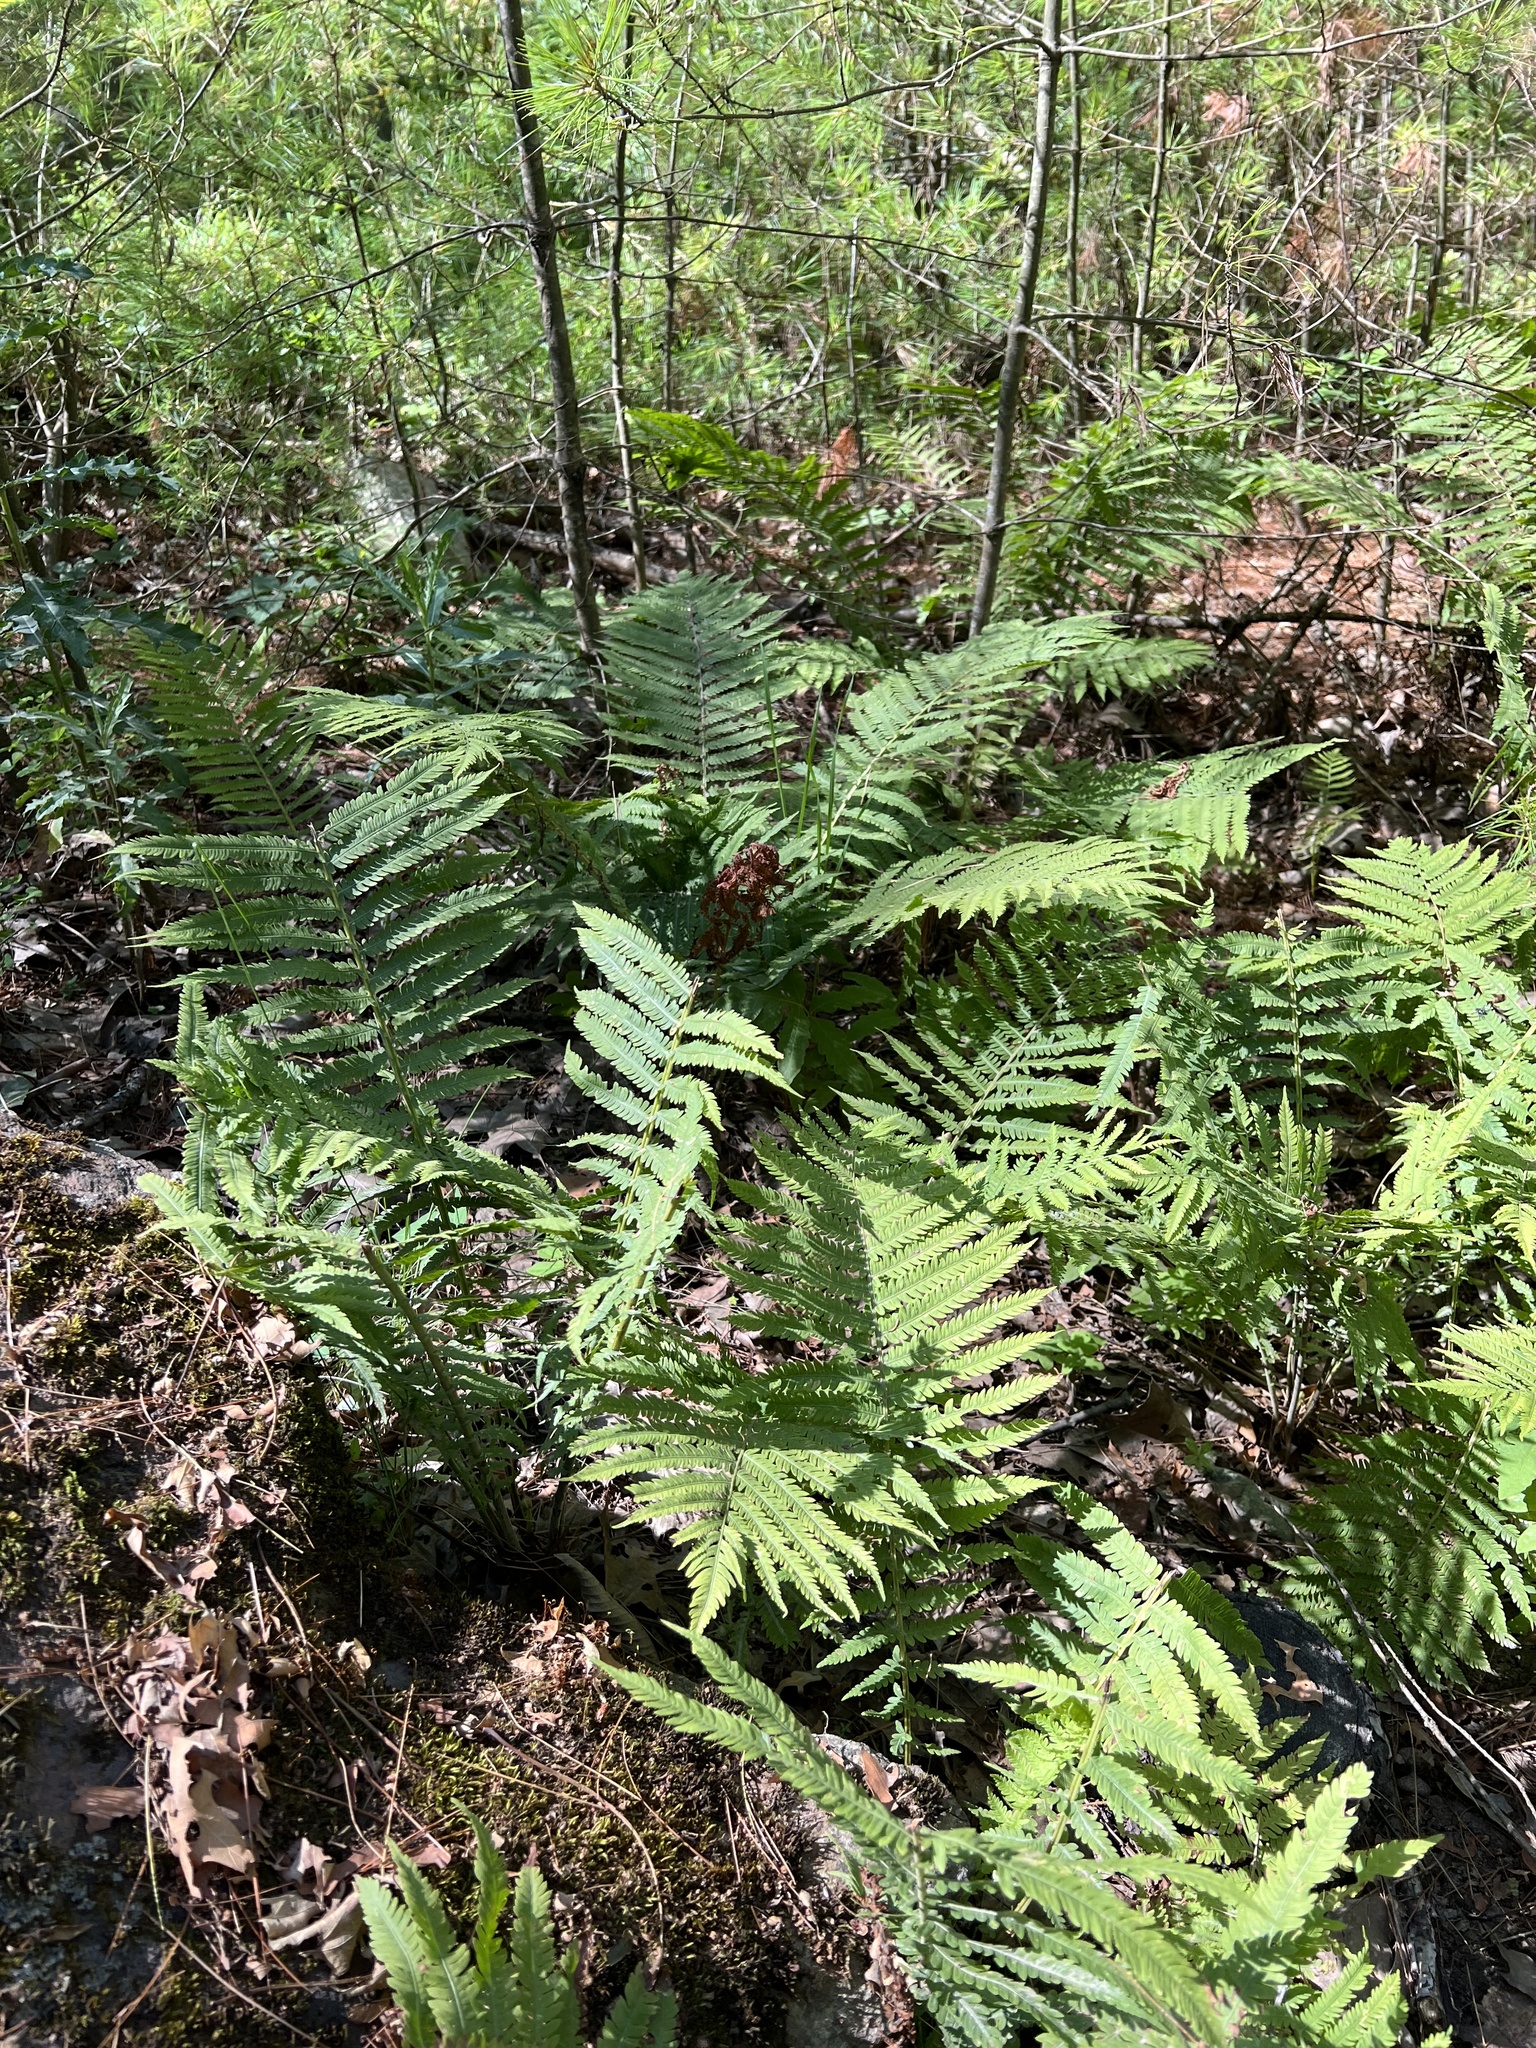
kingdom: Plantae
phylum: Tracheophyta
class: Polypodiopsida
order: Polypodiales
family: Onocleaceae
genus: Matteuccia
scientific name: Matteuccia struthiopteris
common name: Ostrich fern
